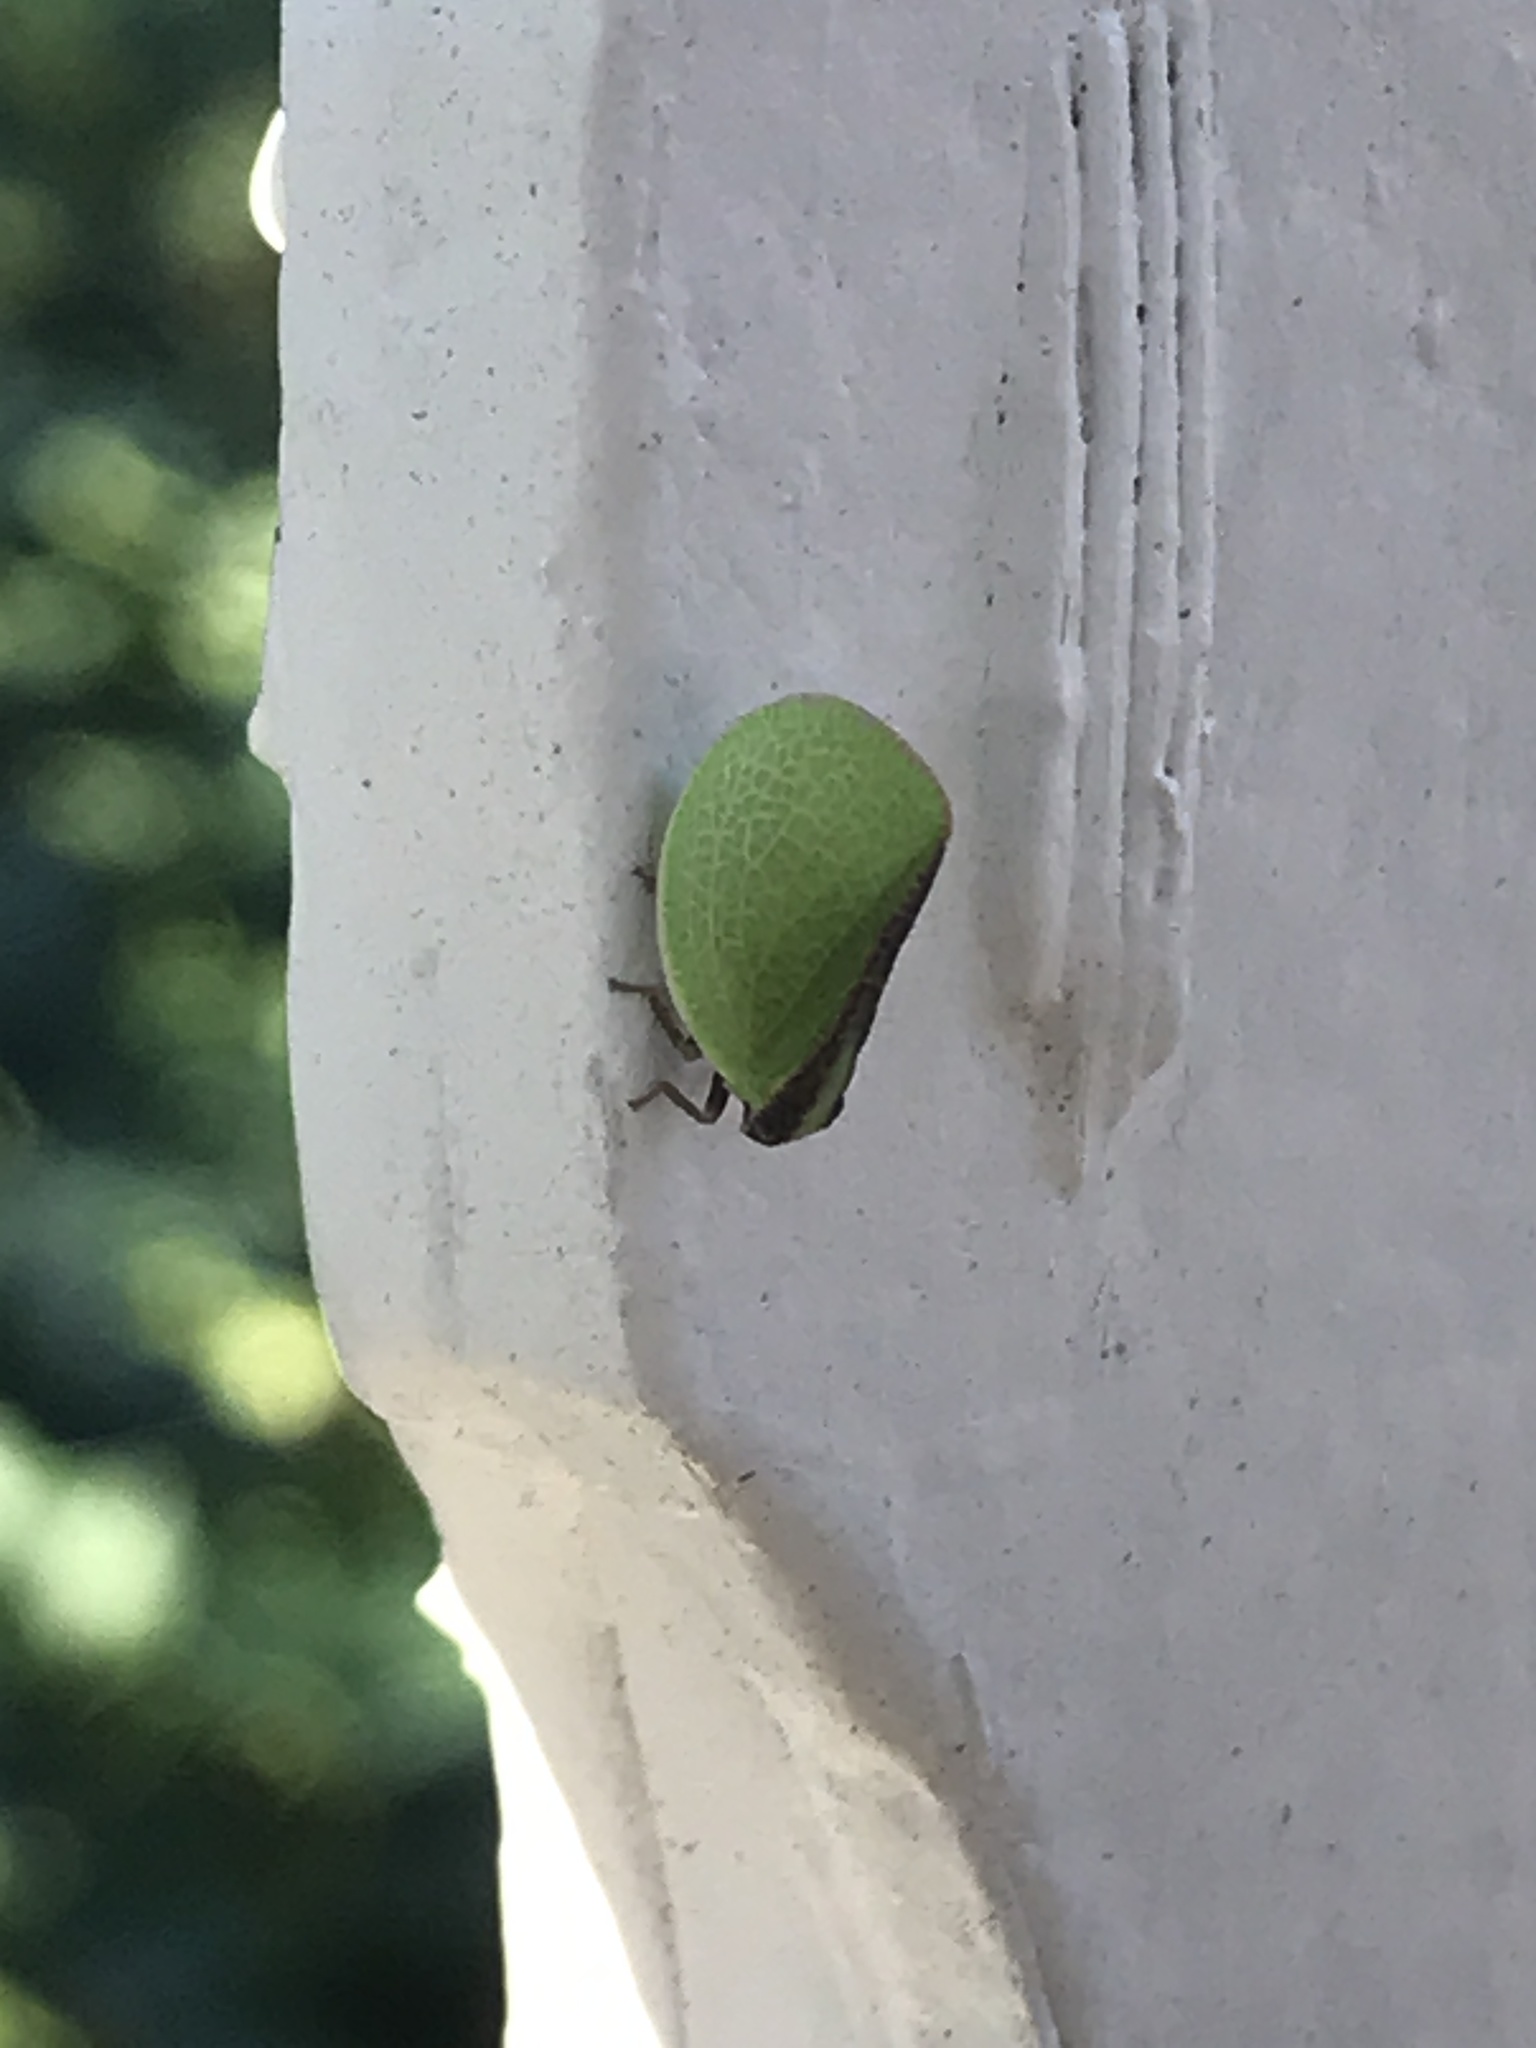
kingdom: Animalia
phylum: Arthropoda
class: Insecta
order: Hemiptera
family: Acanaloniidae
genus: Acanalonia
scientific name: Acanalonia bivittata
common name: Two-striped planthopper
